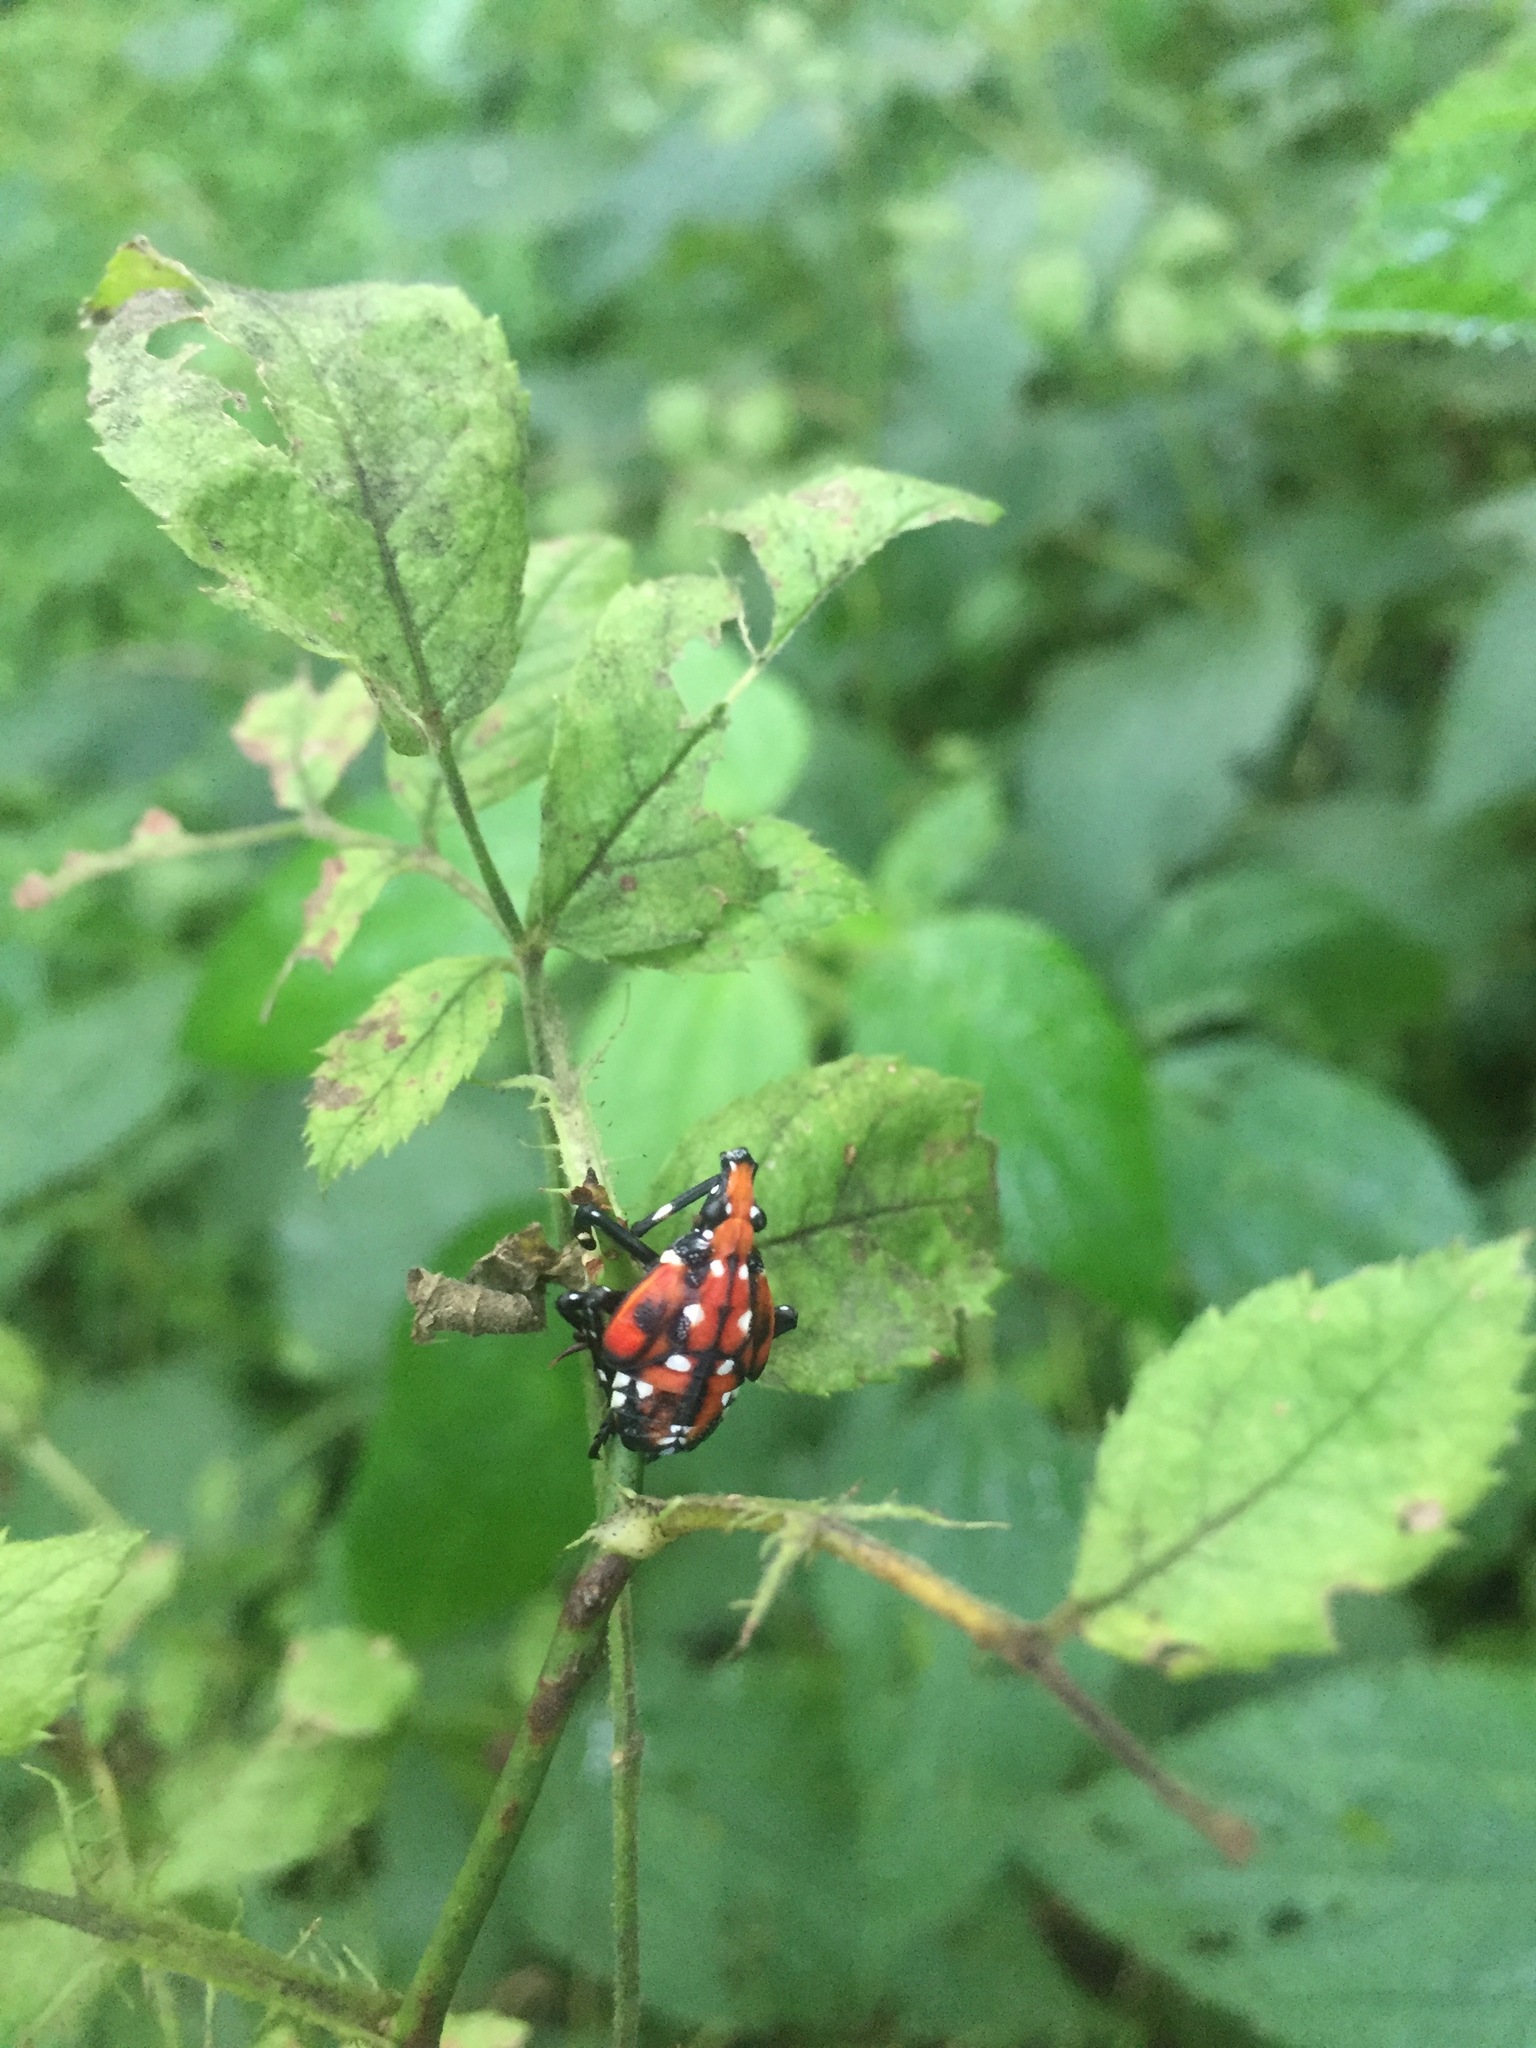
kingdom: Animalia
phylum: Arthropoda
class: Insecta
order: Hemiptera
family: Fulgoridae
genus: Lycorma
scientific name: Lycorma delicatula
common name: Spotted lanternfly
